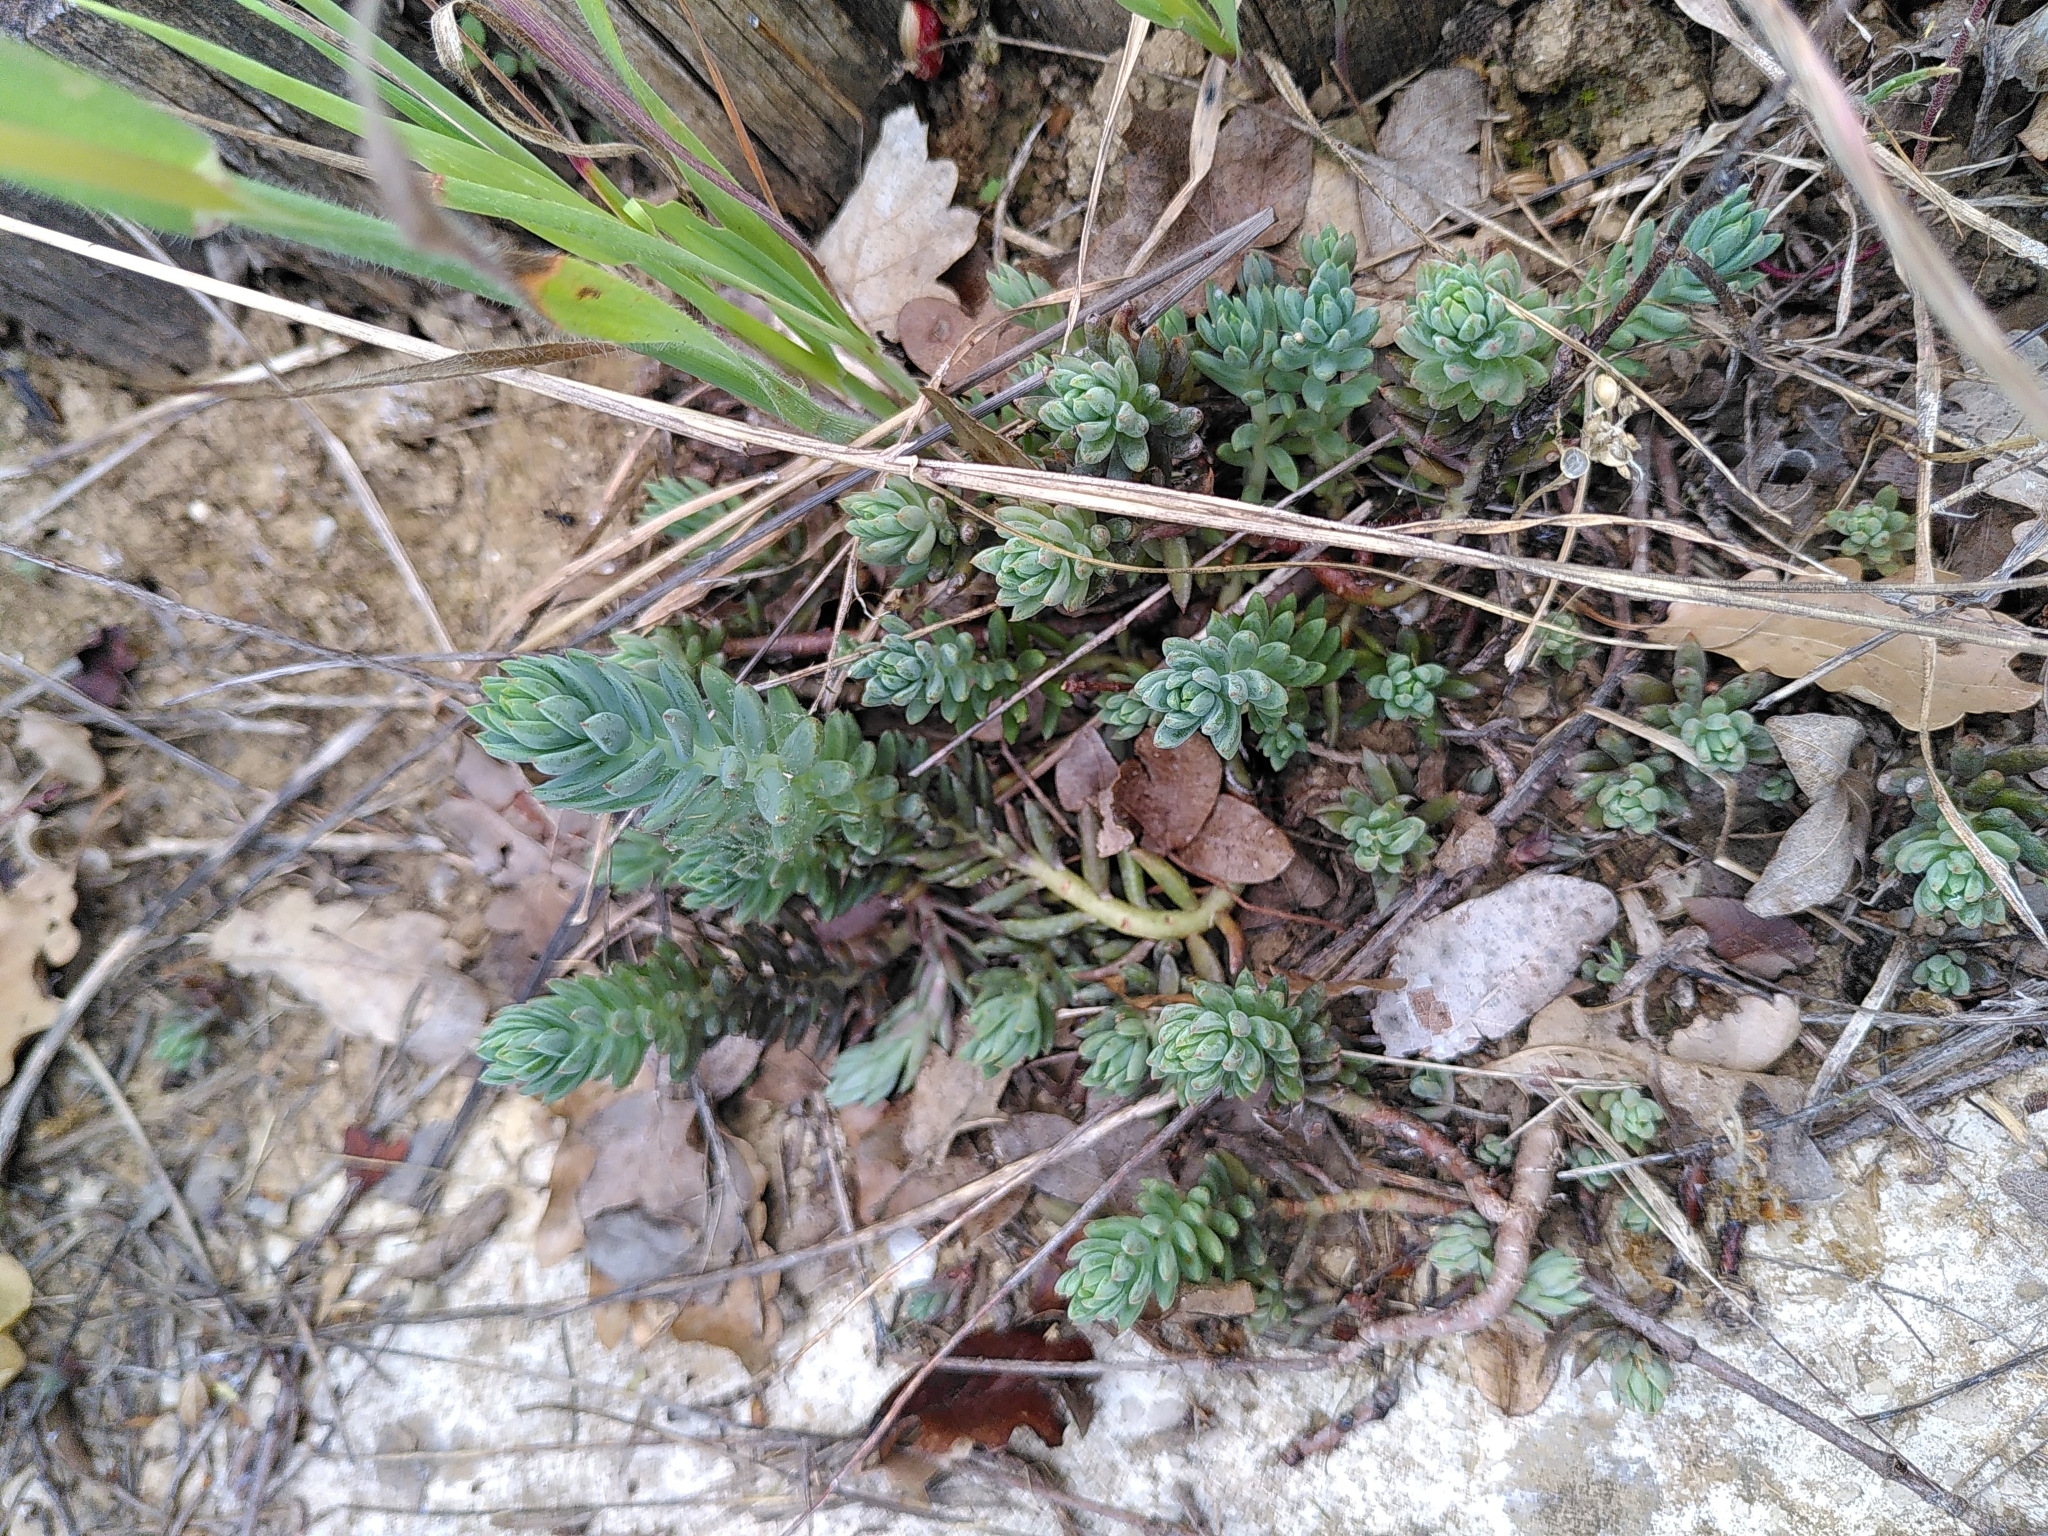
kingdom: Plantae
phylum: Tracheophyta
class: Magnoliopsida
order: Saxifragales
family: Crassulaceae
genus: Petrosedum
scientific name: Petrosedum sediforme
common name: Pale stonecrop
